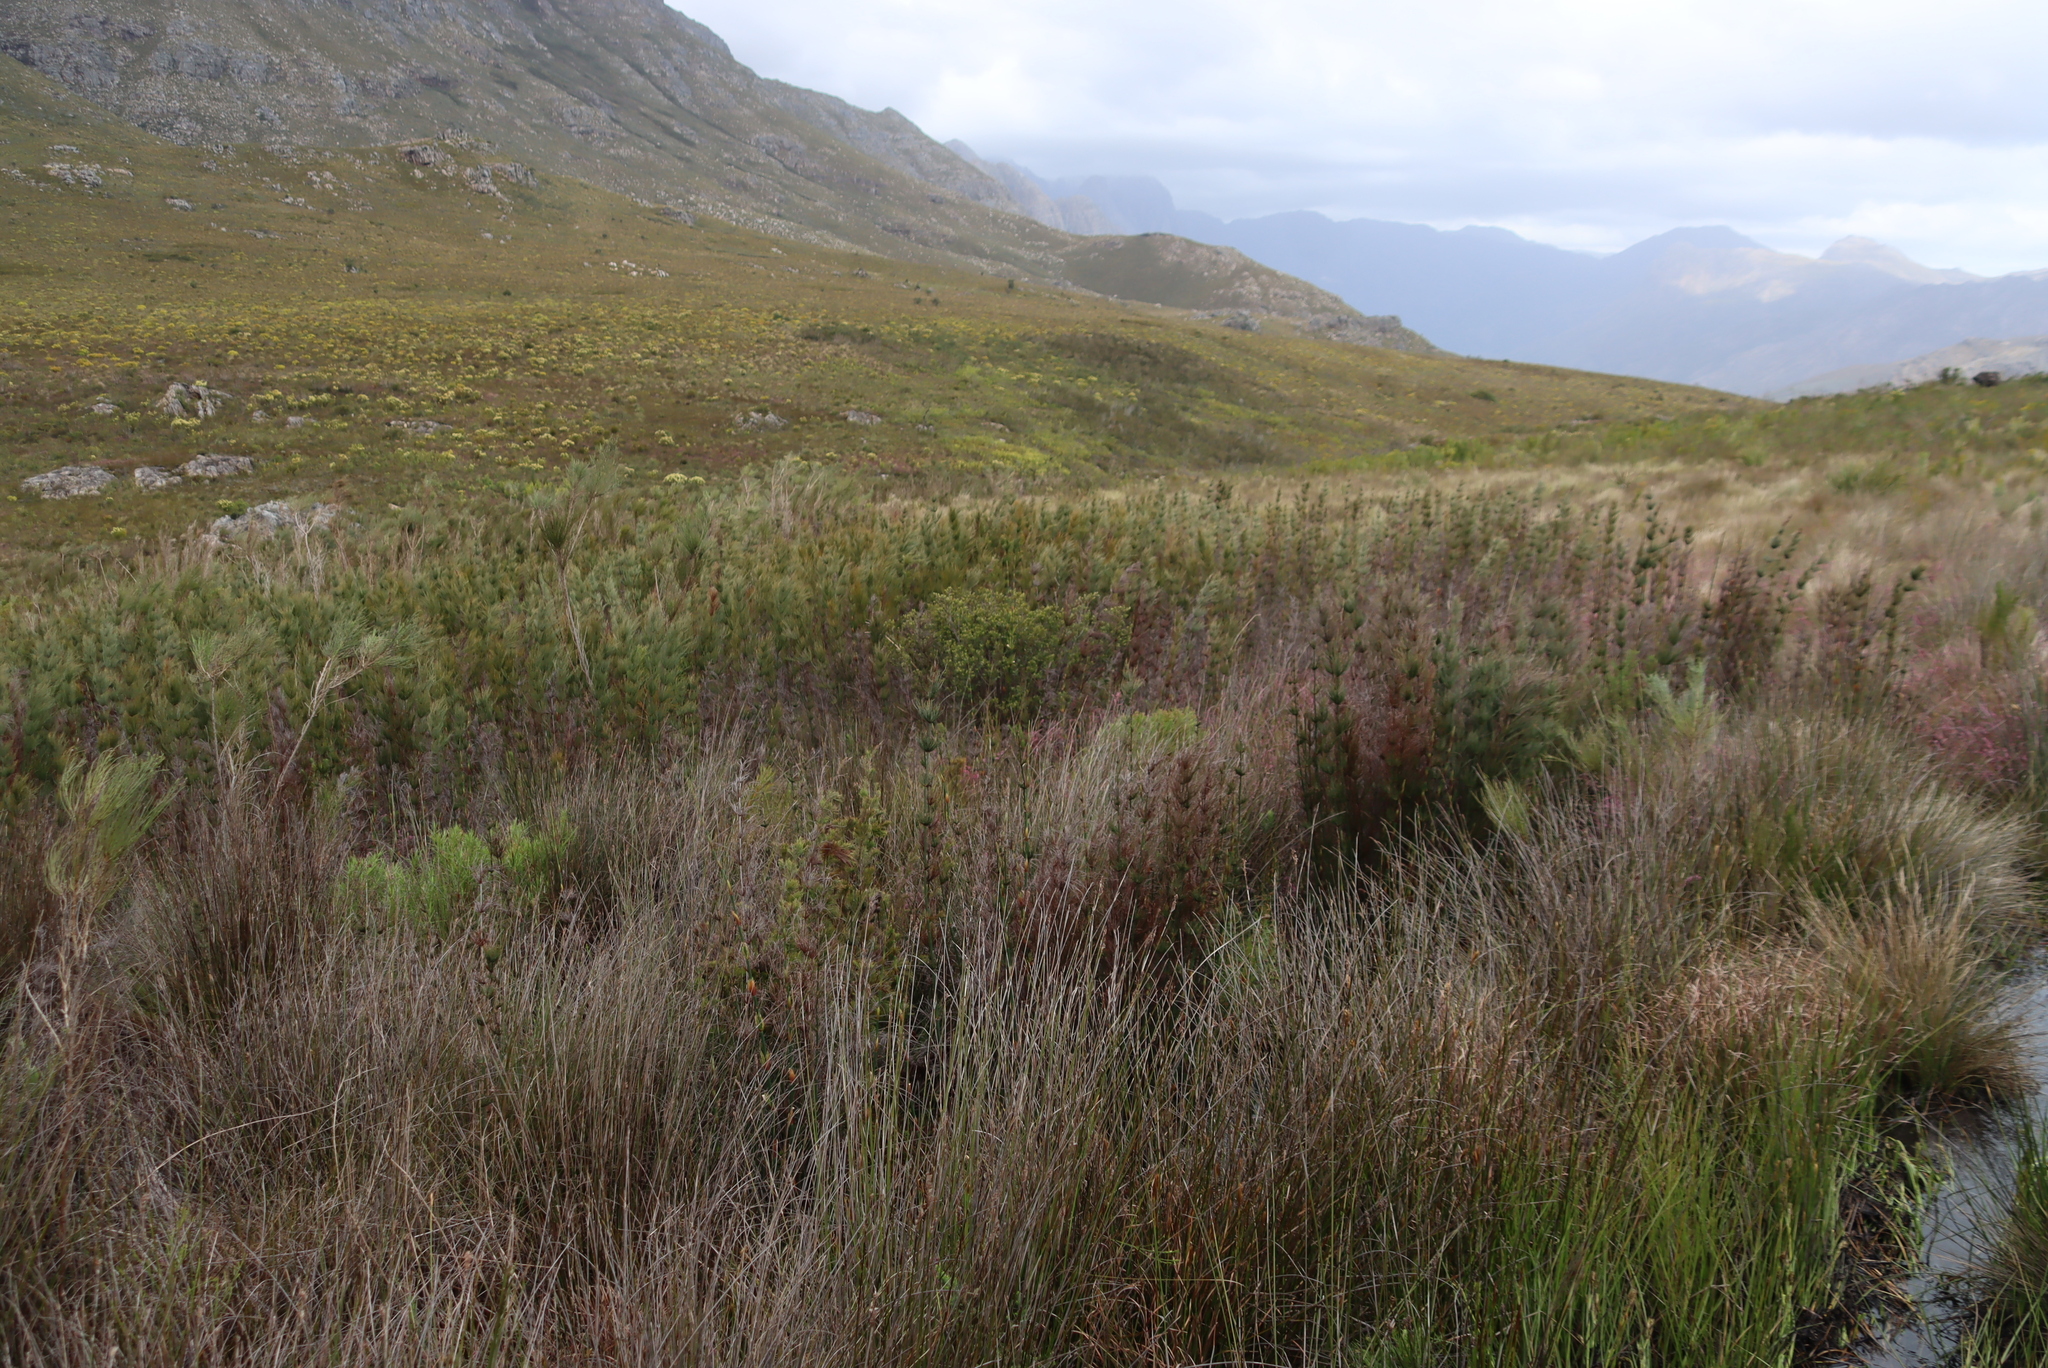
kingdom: Plantae
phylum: Tracheophyta
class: Liliopsida
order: Poales
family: Restionaceae
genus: Elegia
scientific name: Elegia capensis
